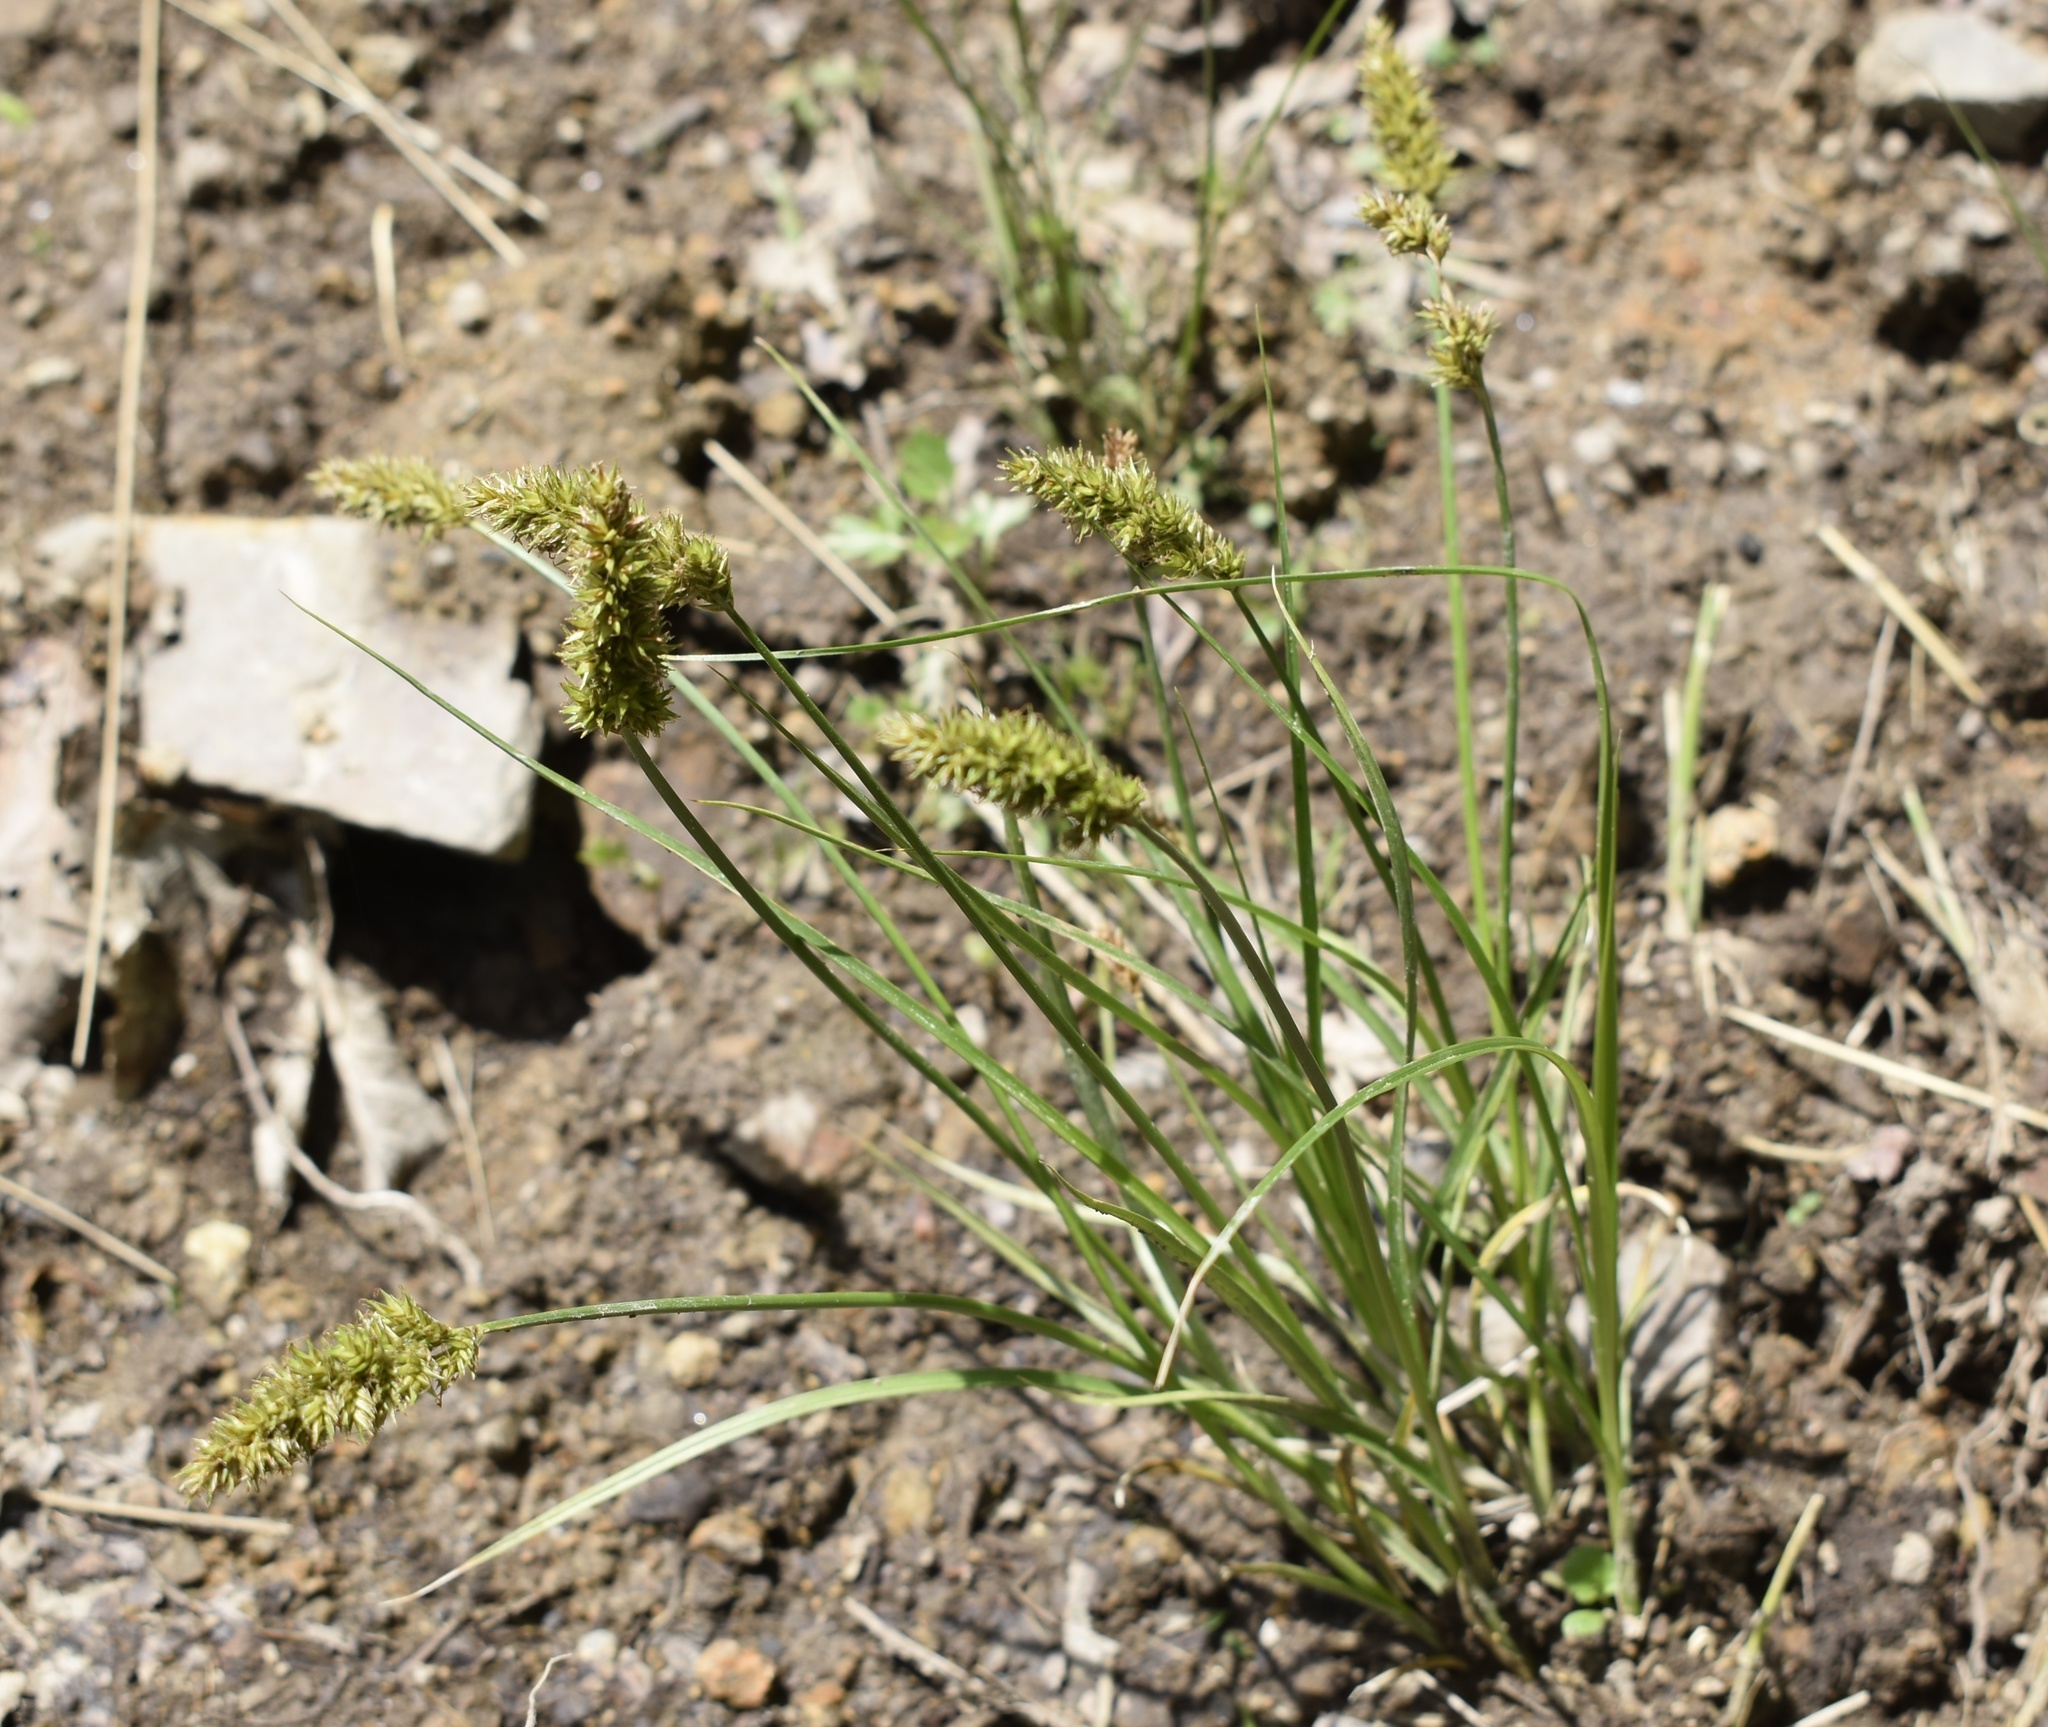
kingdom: Plantae
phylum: Tracheophyta
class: Liliopsida
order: Poales
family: Cyperaceae
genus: Carex
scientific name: Carex laevissima
